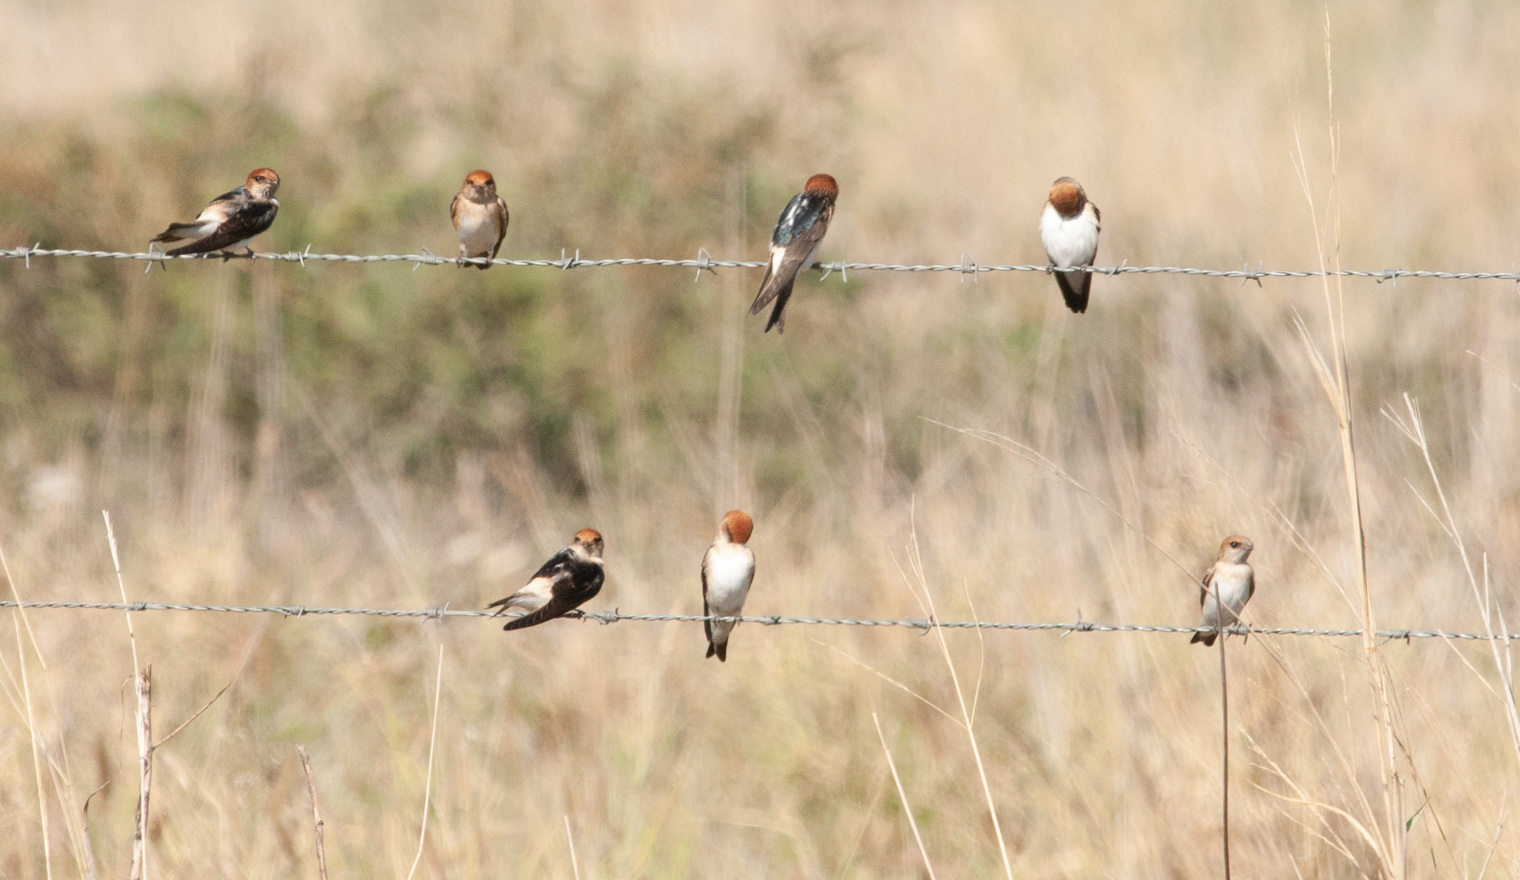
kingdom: Animalia
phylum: Chordata
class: Aves
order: Passeriformes
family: Hirundinidae
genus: Petrochelidon
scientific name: Petrochelidon ariel
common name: Fairy martin
